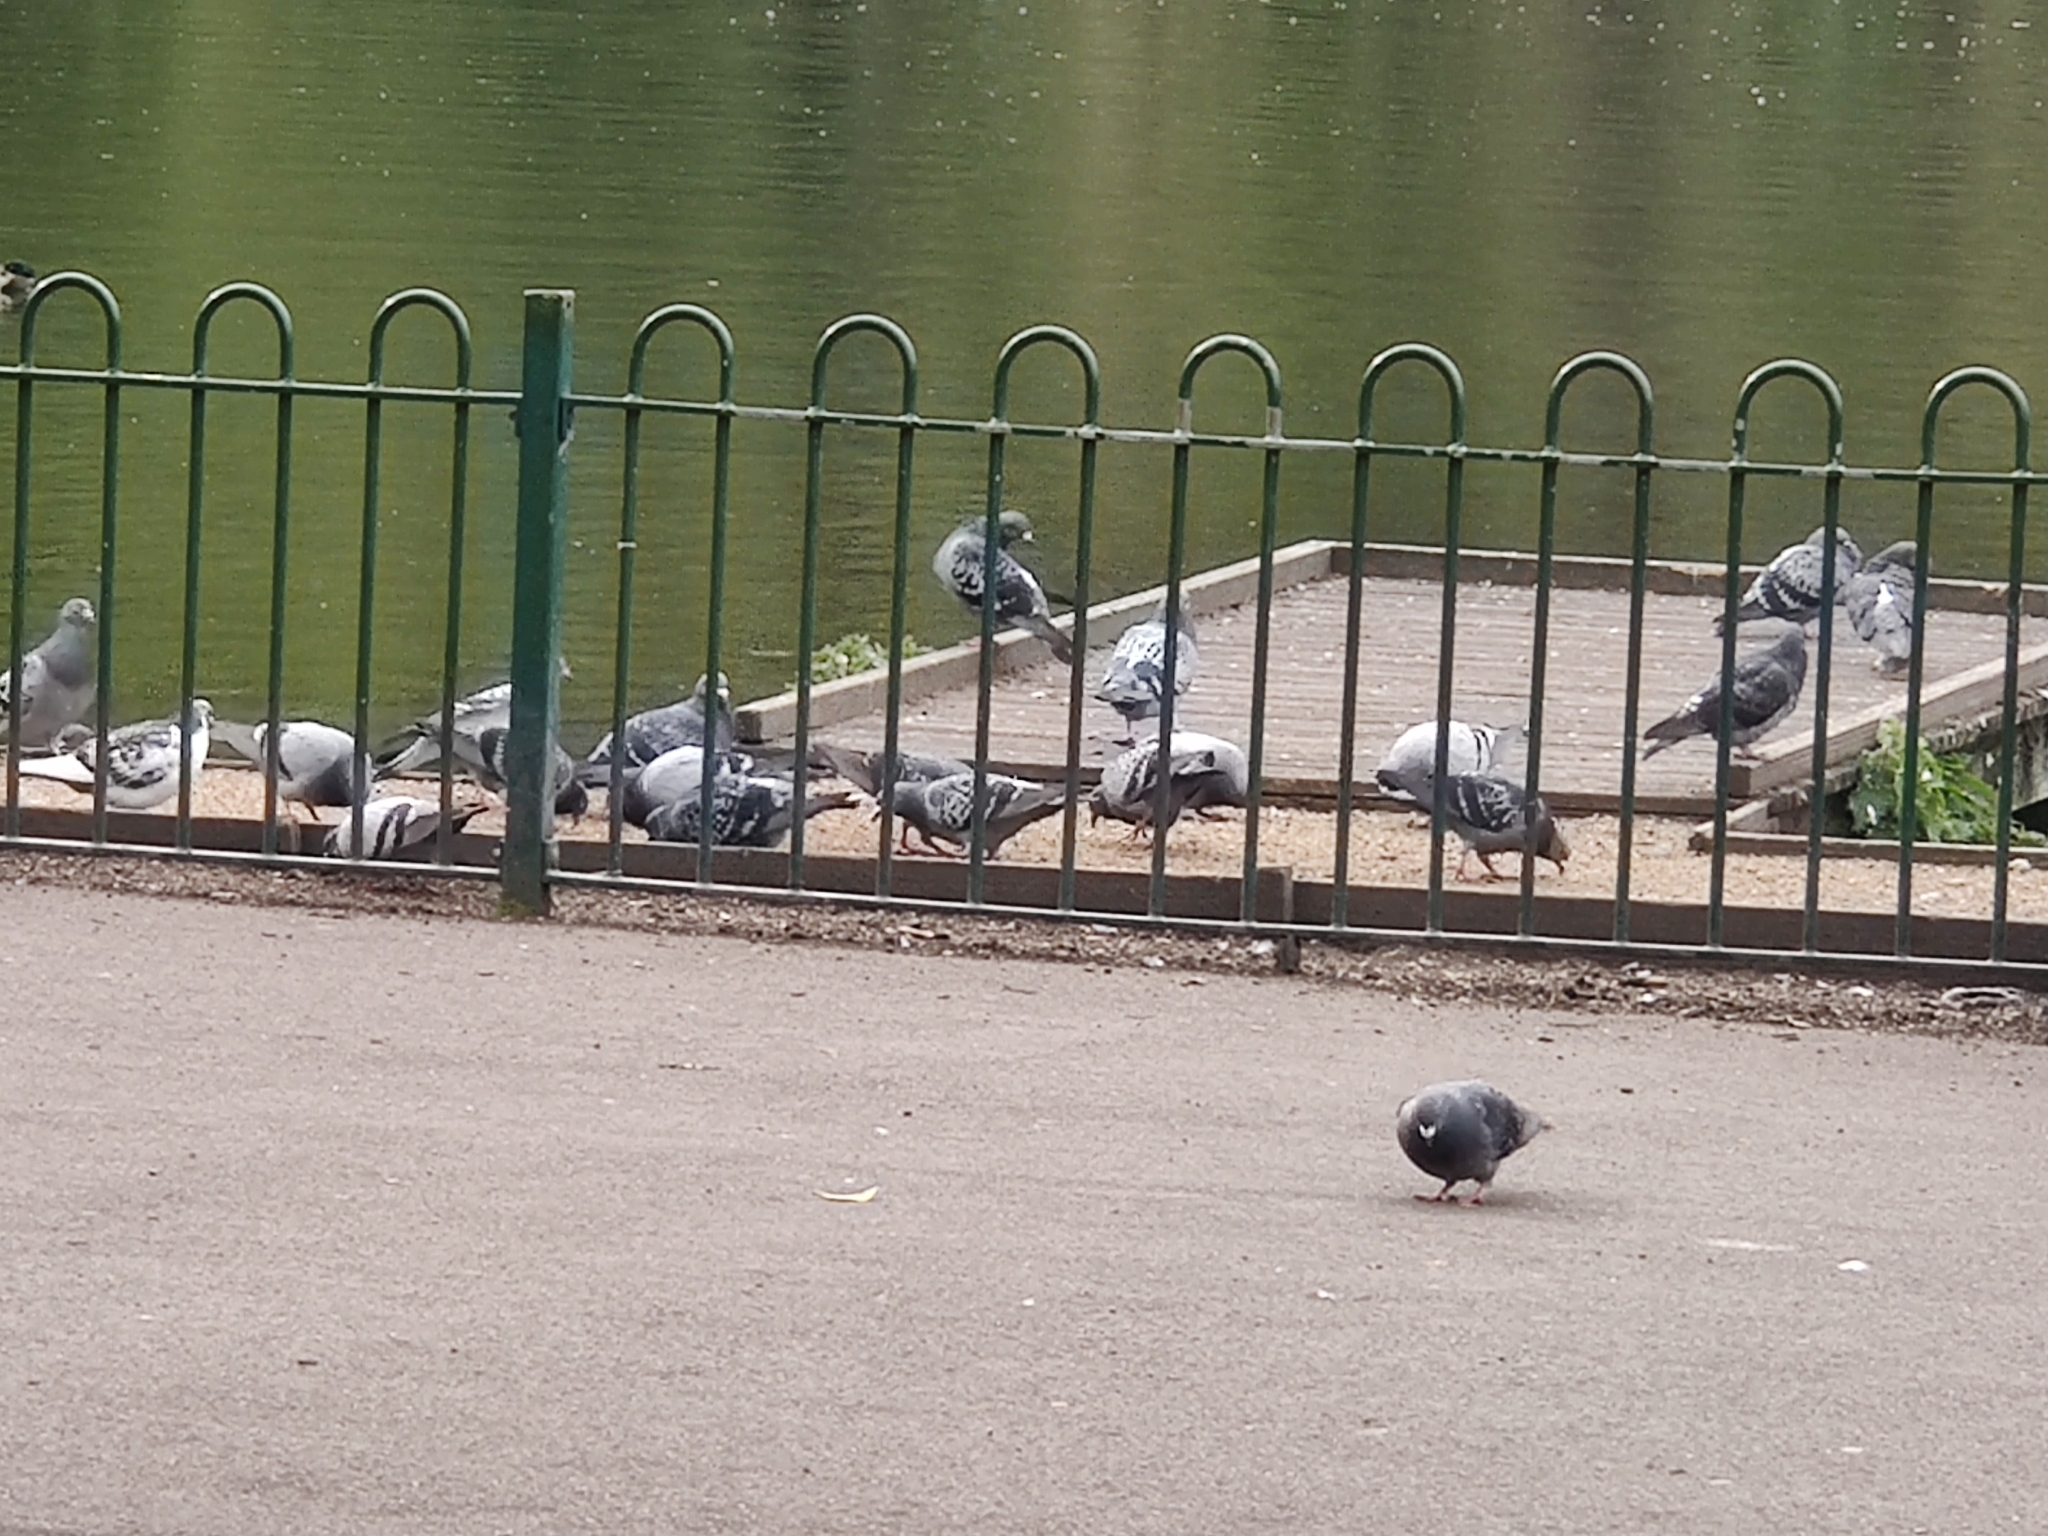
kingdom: Animalia
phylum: Chordata
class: Aves
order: Columbiformes
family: Columbidae
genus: Columba
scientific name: Columba livia
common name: Rock pigeon
